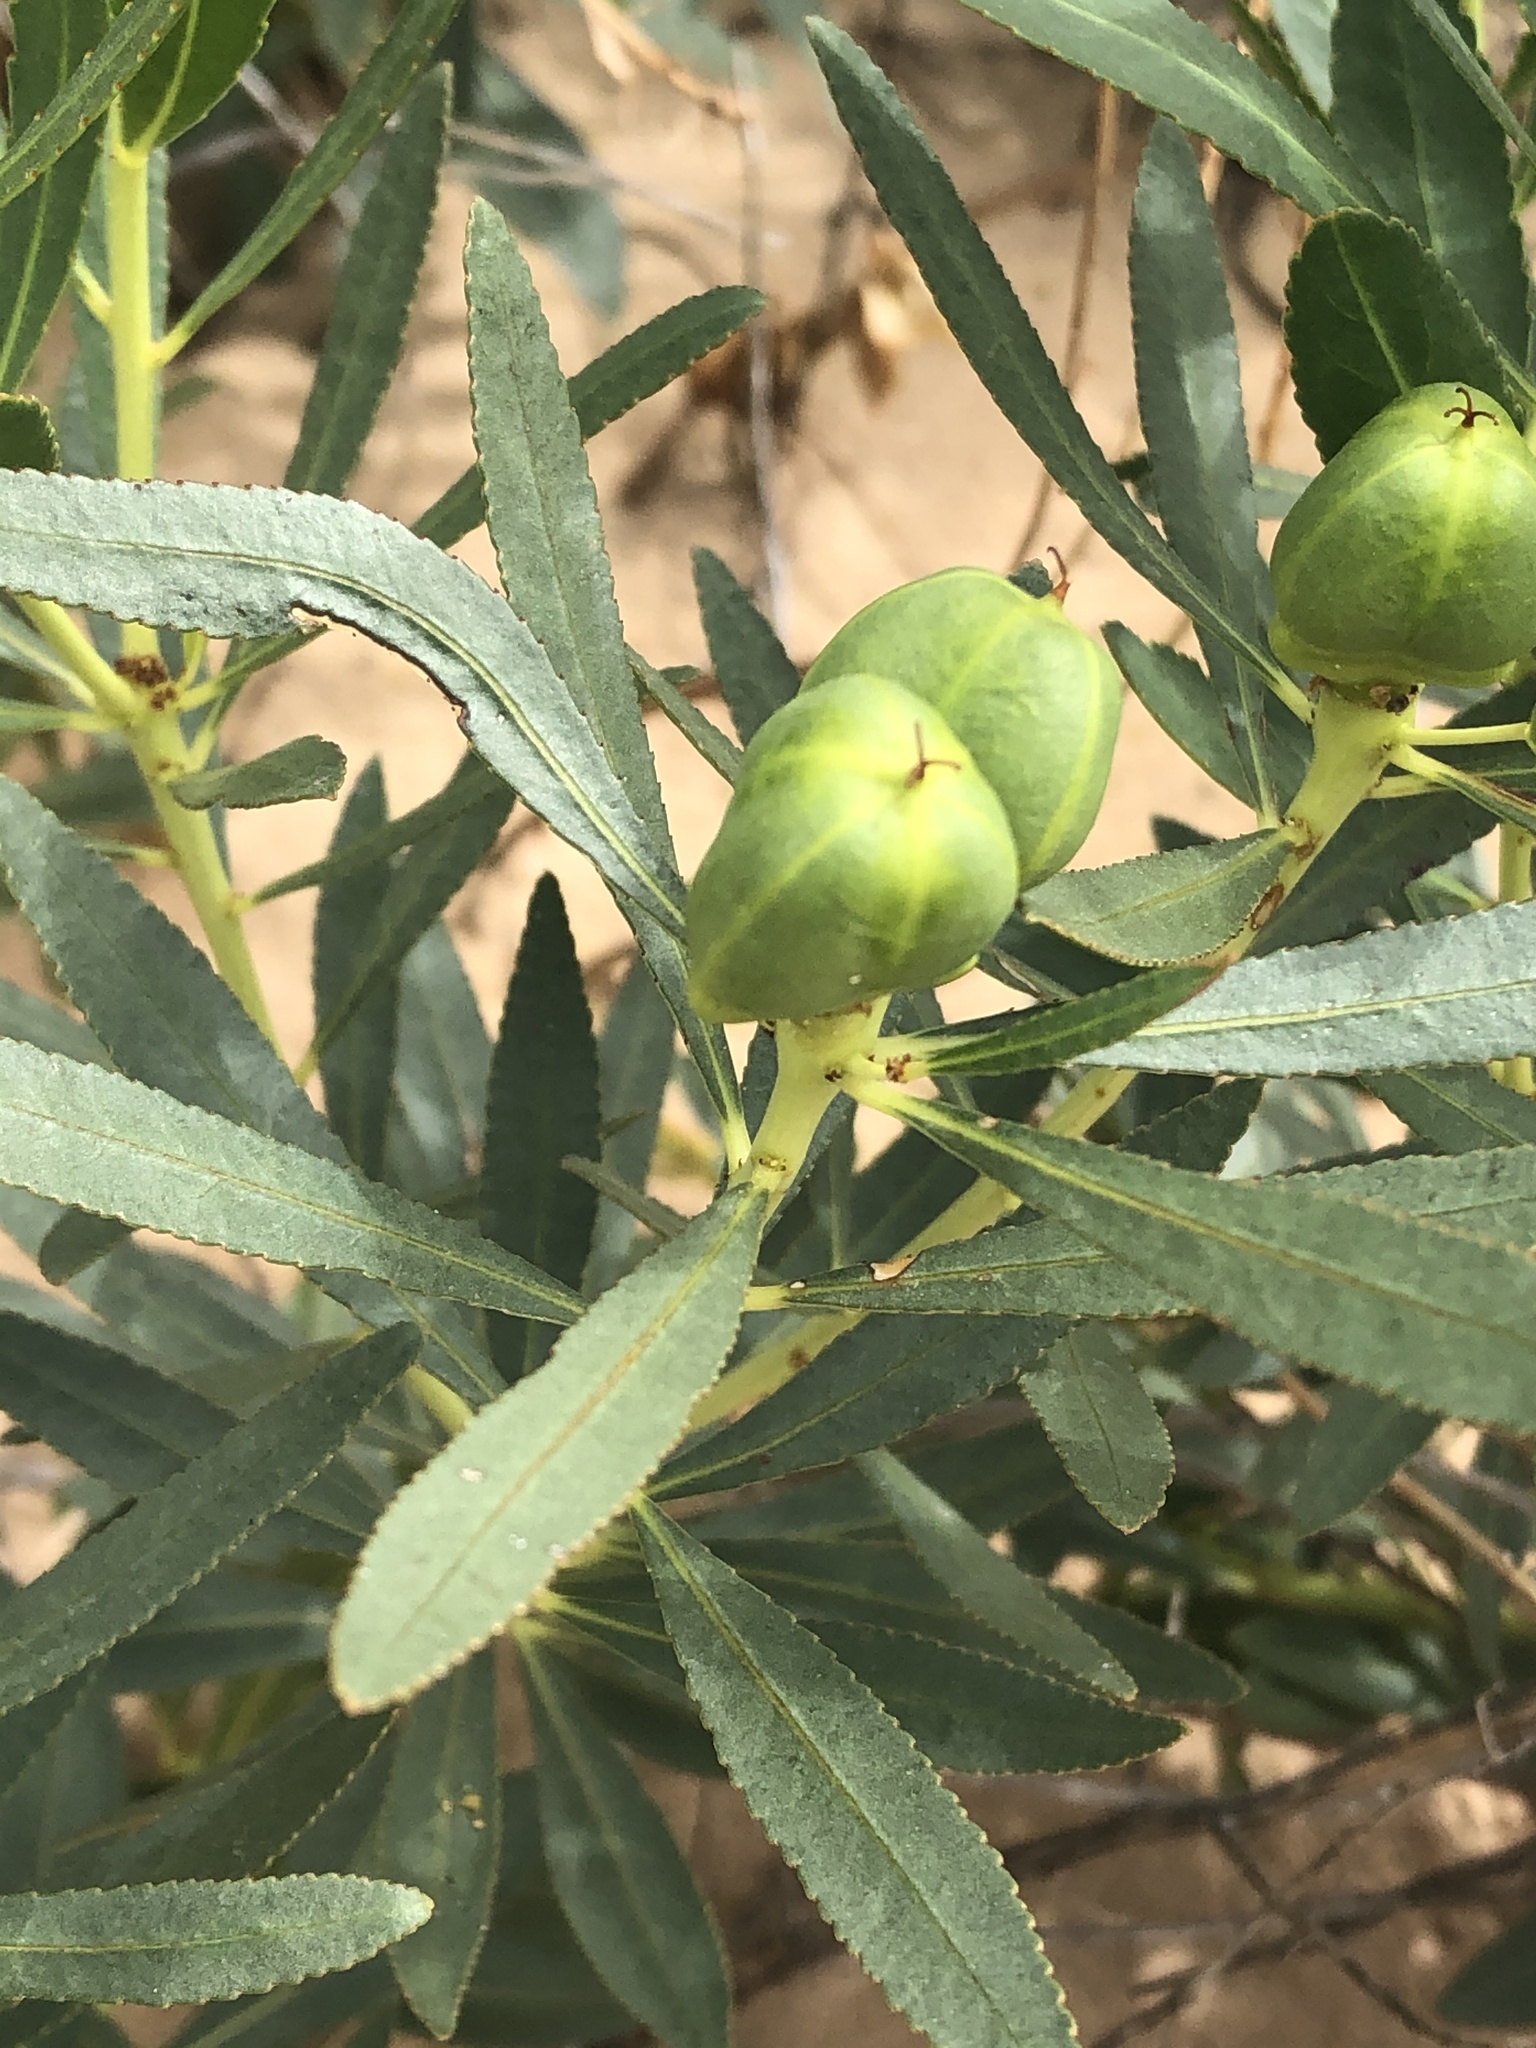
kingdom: Plantae
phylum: Tracheophyta
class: Magnoliopsida
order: Malpighiales
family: Euphorbiaceae
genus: Stillingia
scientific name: Stillingia sylvatica
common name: Queen's-delight
